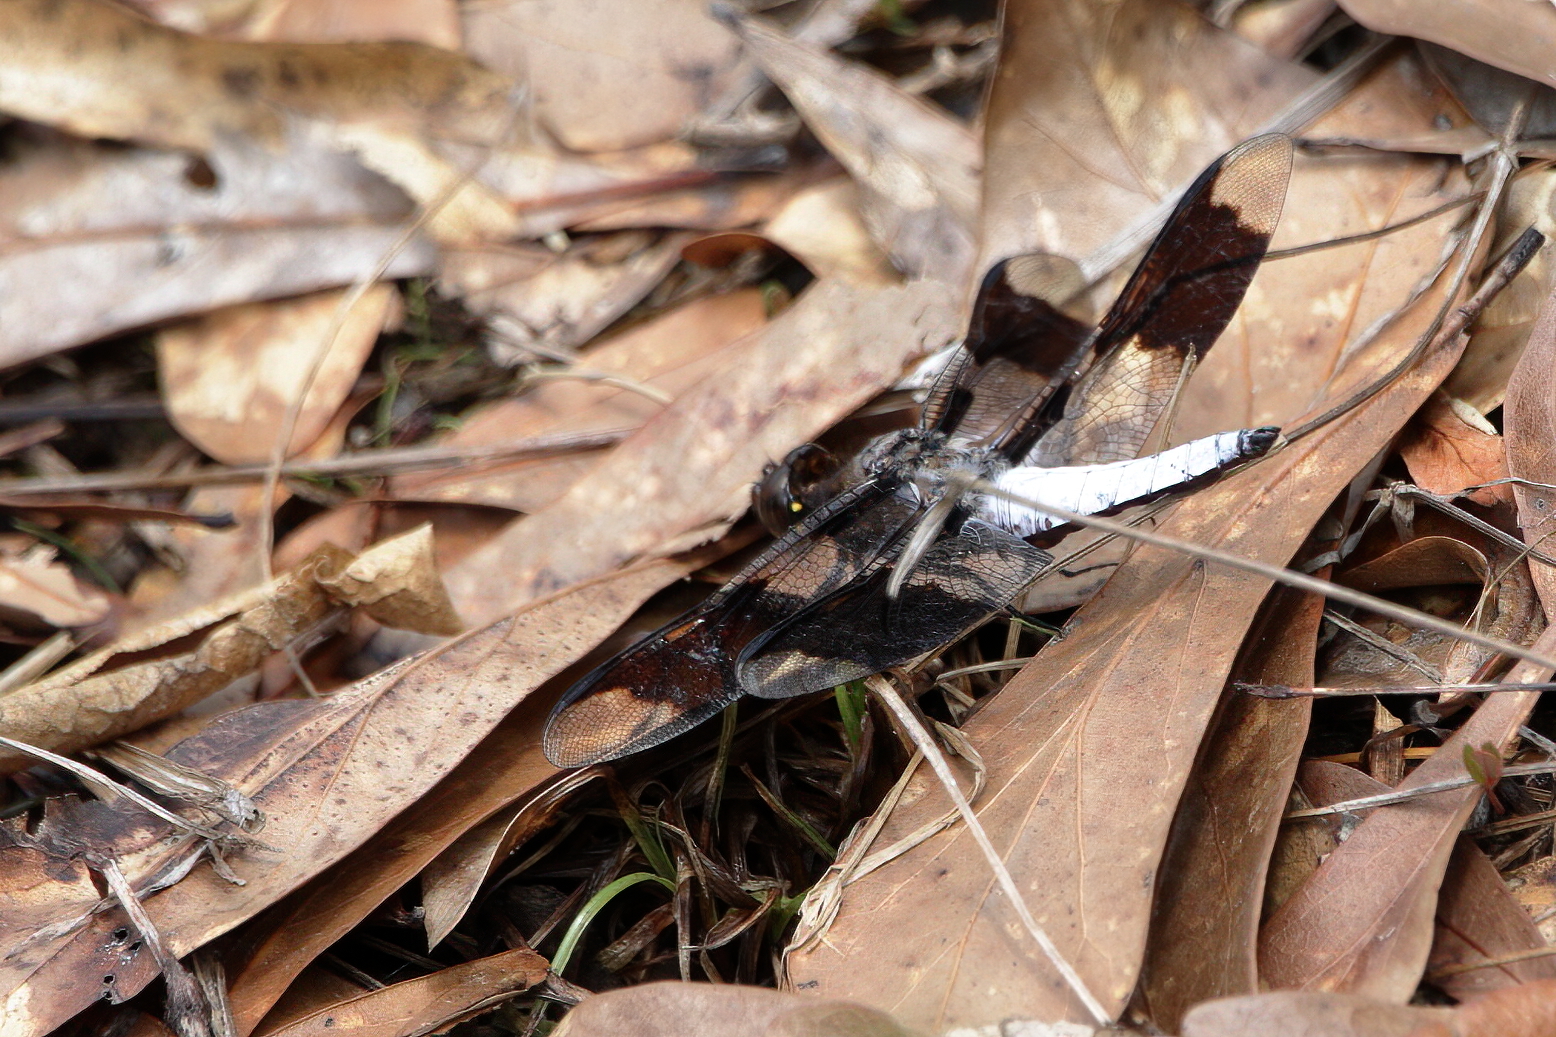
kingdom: Animalia
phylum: Arthropoda
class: Insecta
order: Odonata
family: Libellulidae
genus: Plathemis
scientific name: Plathemis lydia
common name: Common whitetail
